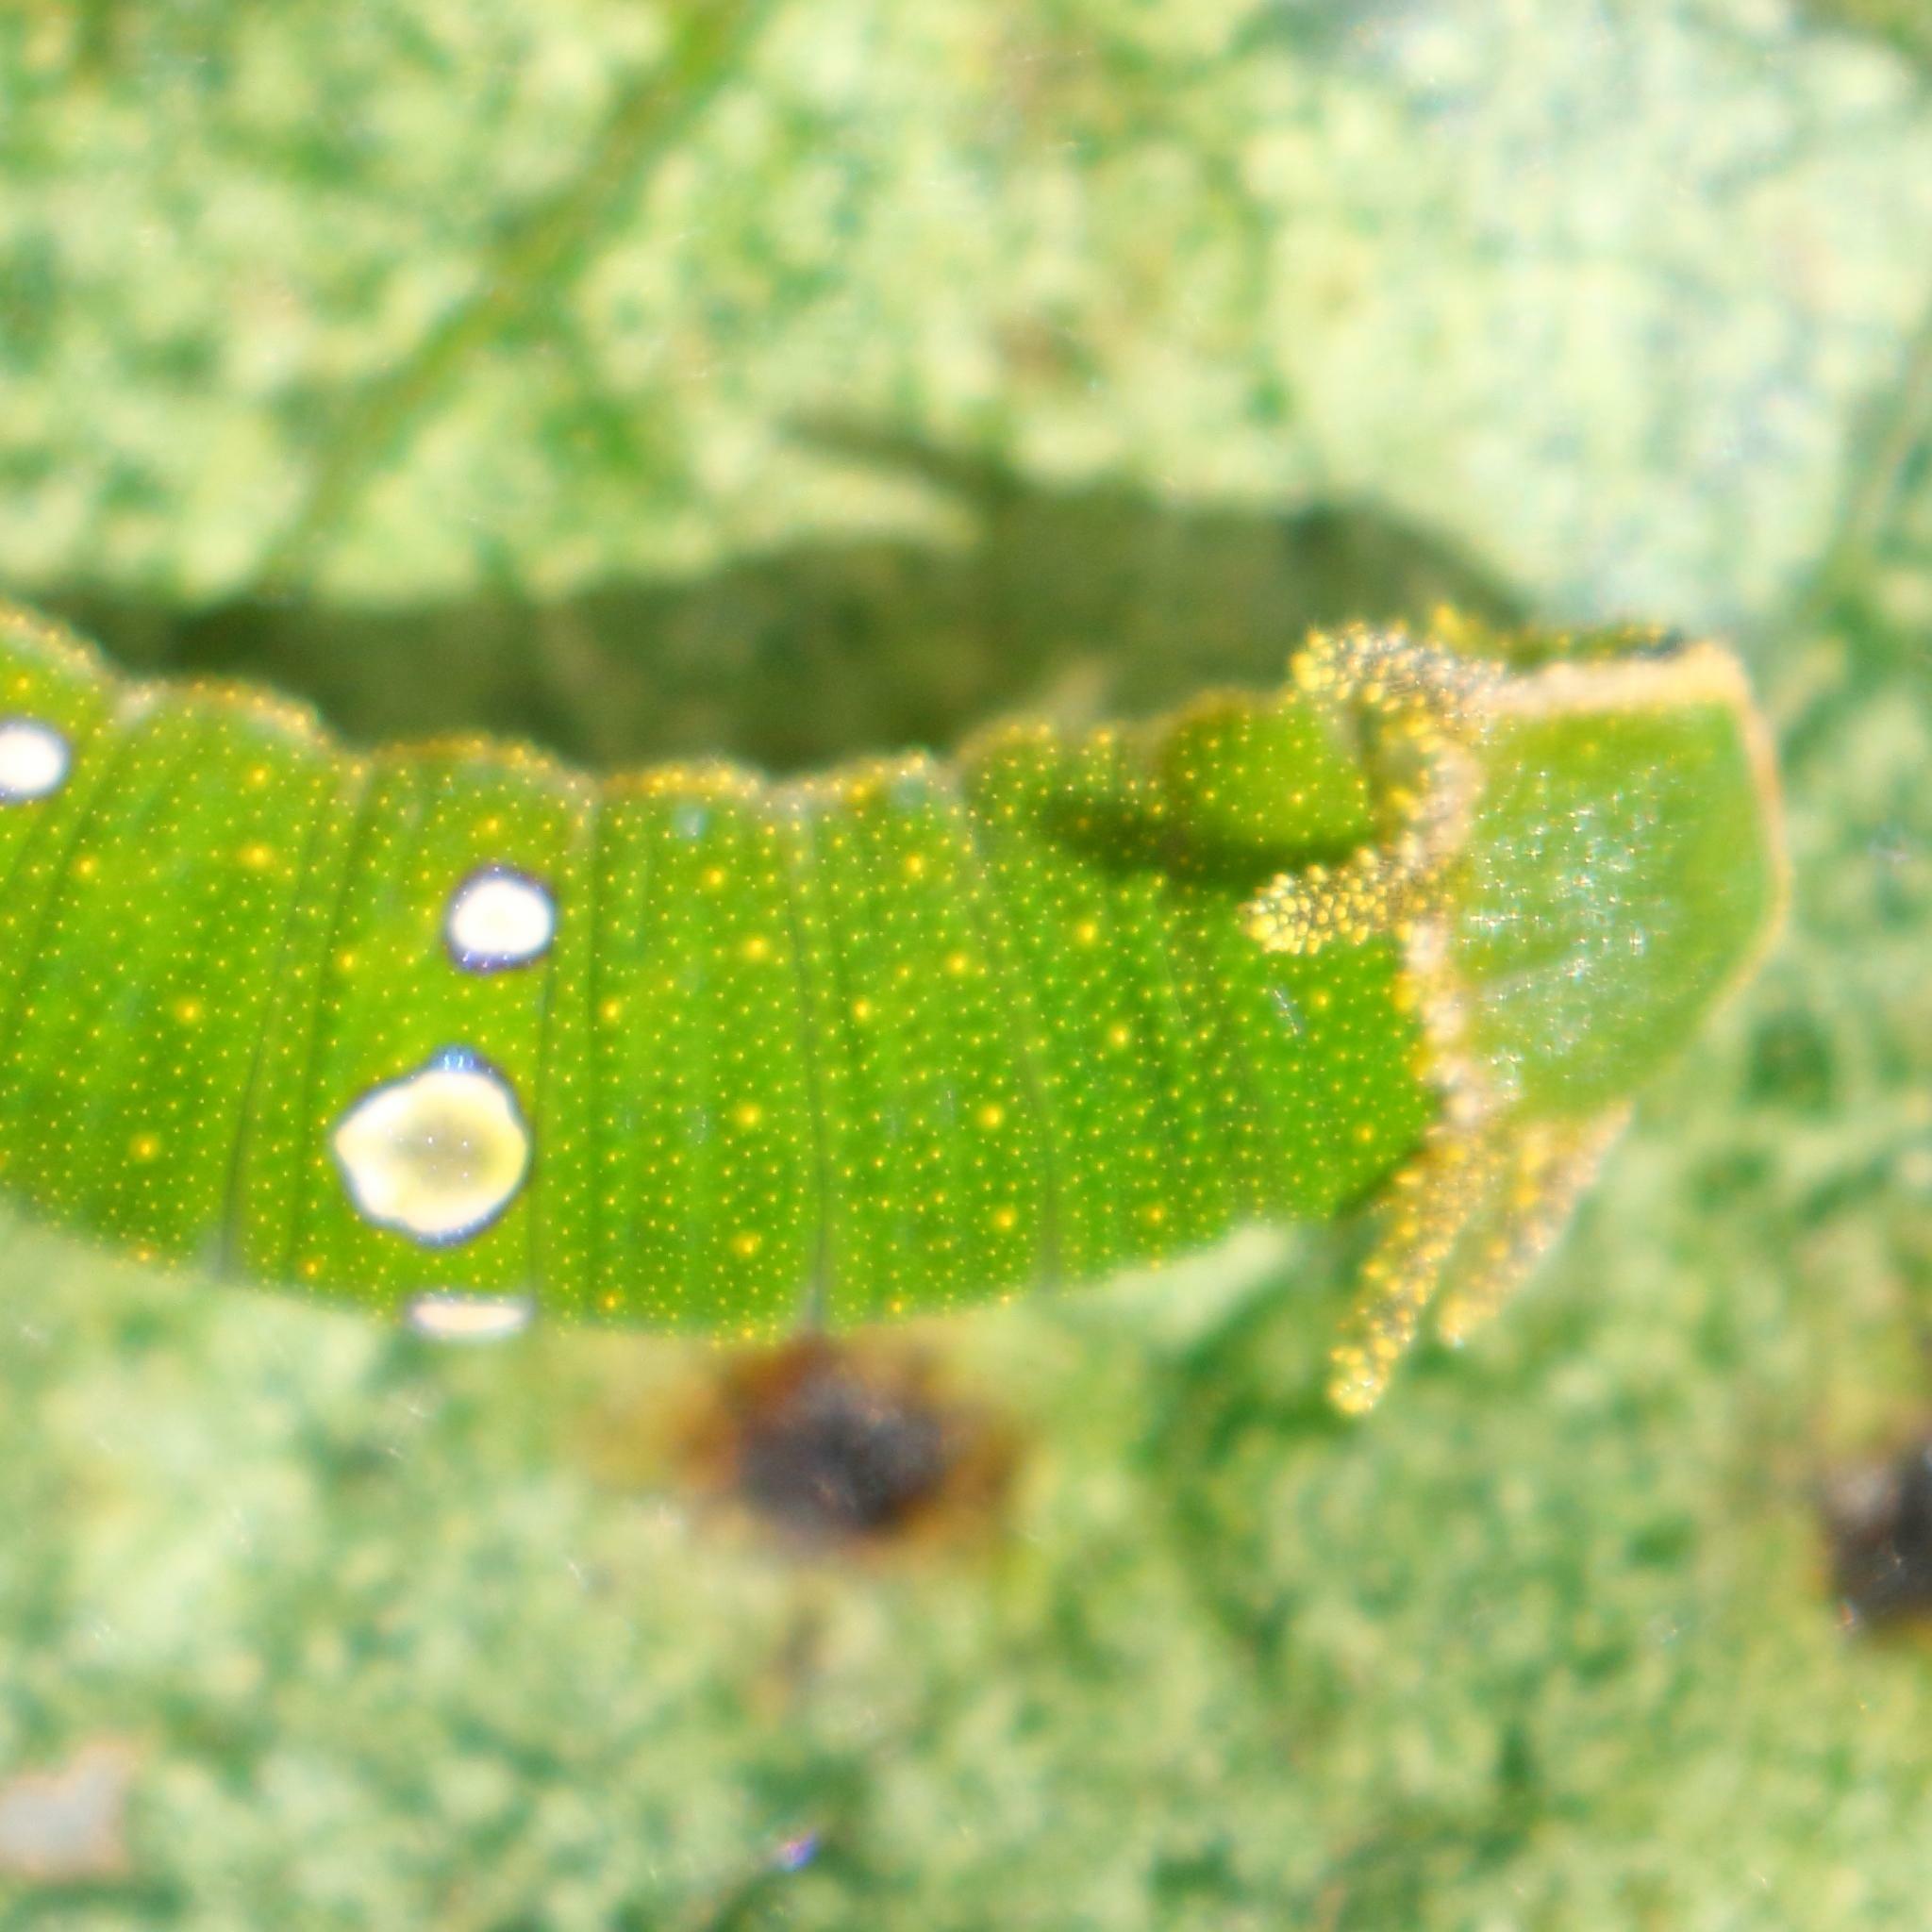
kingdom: Animalia
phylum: Arthropoda
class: Insecta
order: Lepidoptera
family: Nymphalidae
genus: Charaxes
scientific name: Charaxes candiope
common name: Green-veined charaxes
